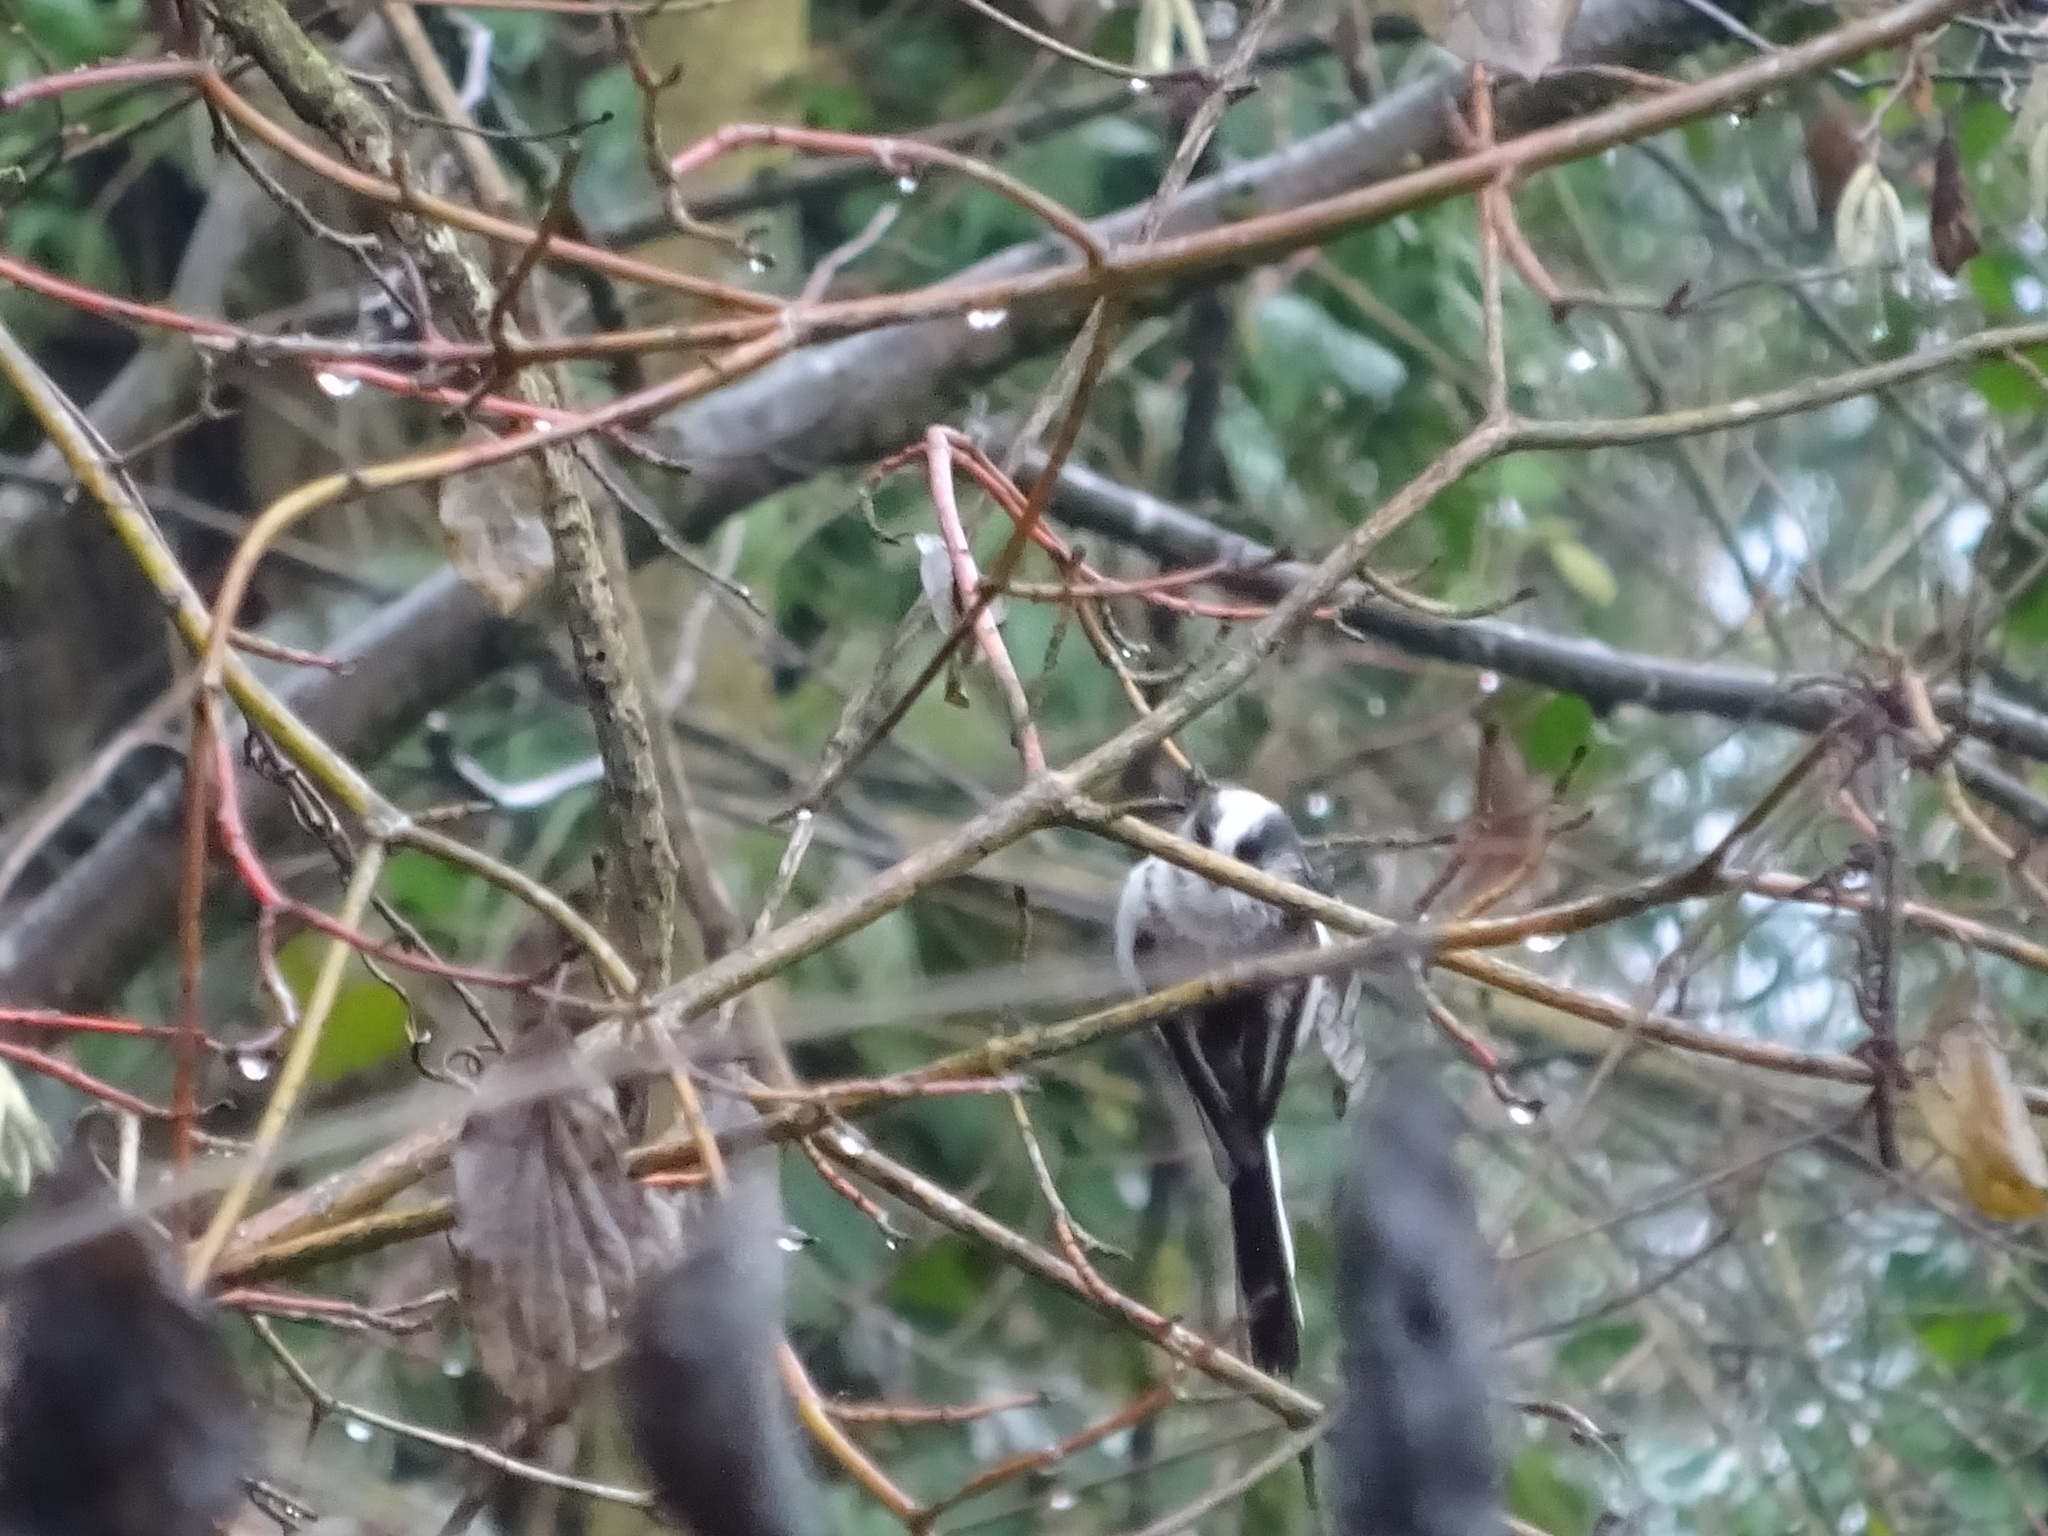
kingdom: Animalia
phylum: Chordata
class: Aves
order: Passeriformes
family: Aegithalidae
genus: Aegithalos
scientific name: Aegithalos caudatus
